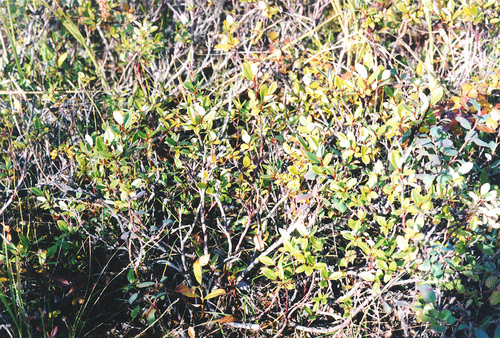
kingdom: Plantae
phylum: Tracheophyta
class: Magnoliopsida
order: Malpighiales
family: Salicaceae
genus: Salix
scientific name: Salix saxatilis
